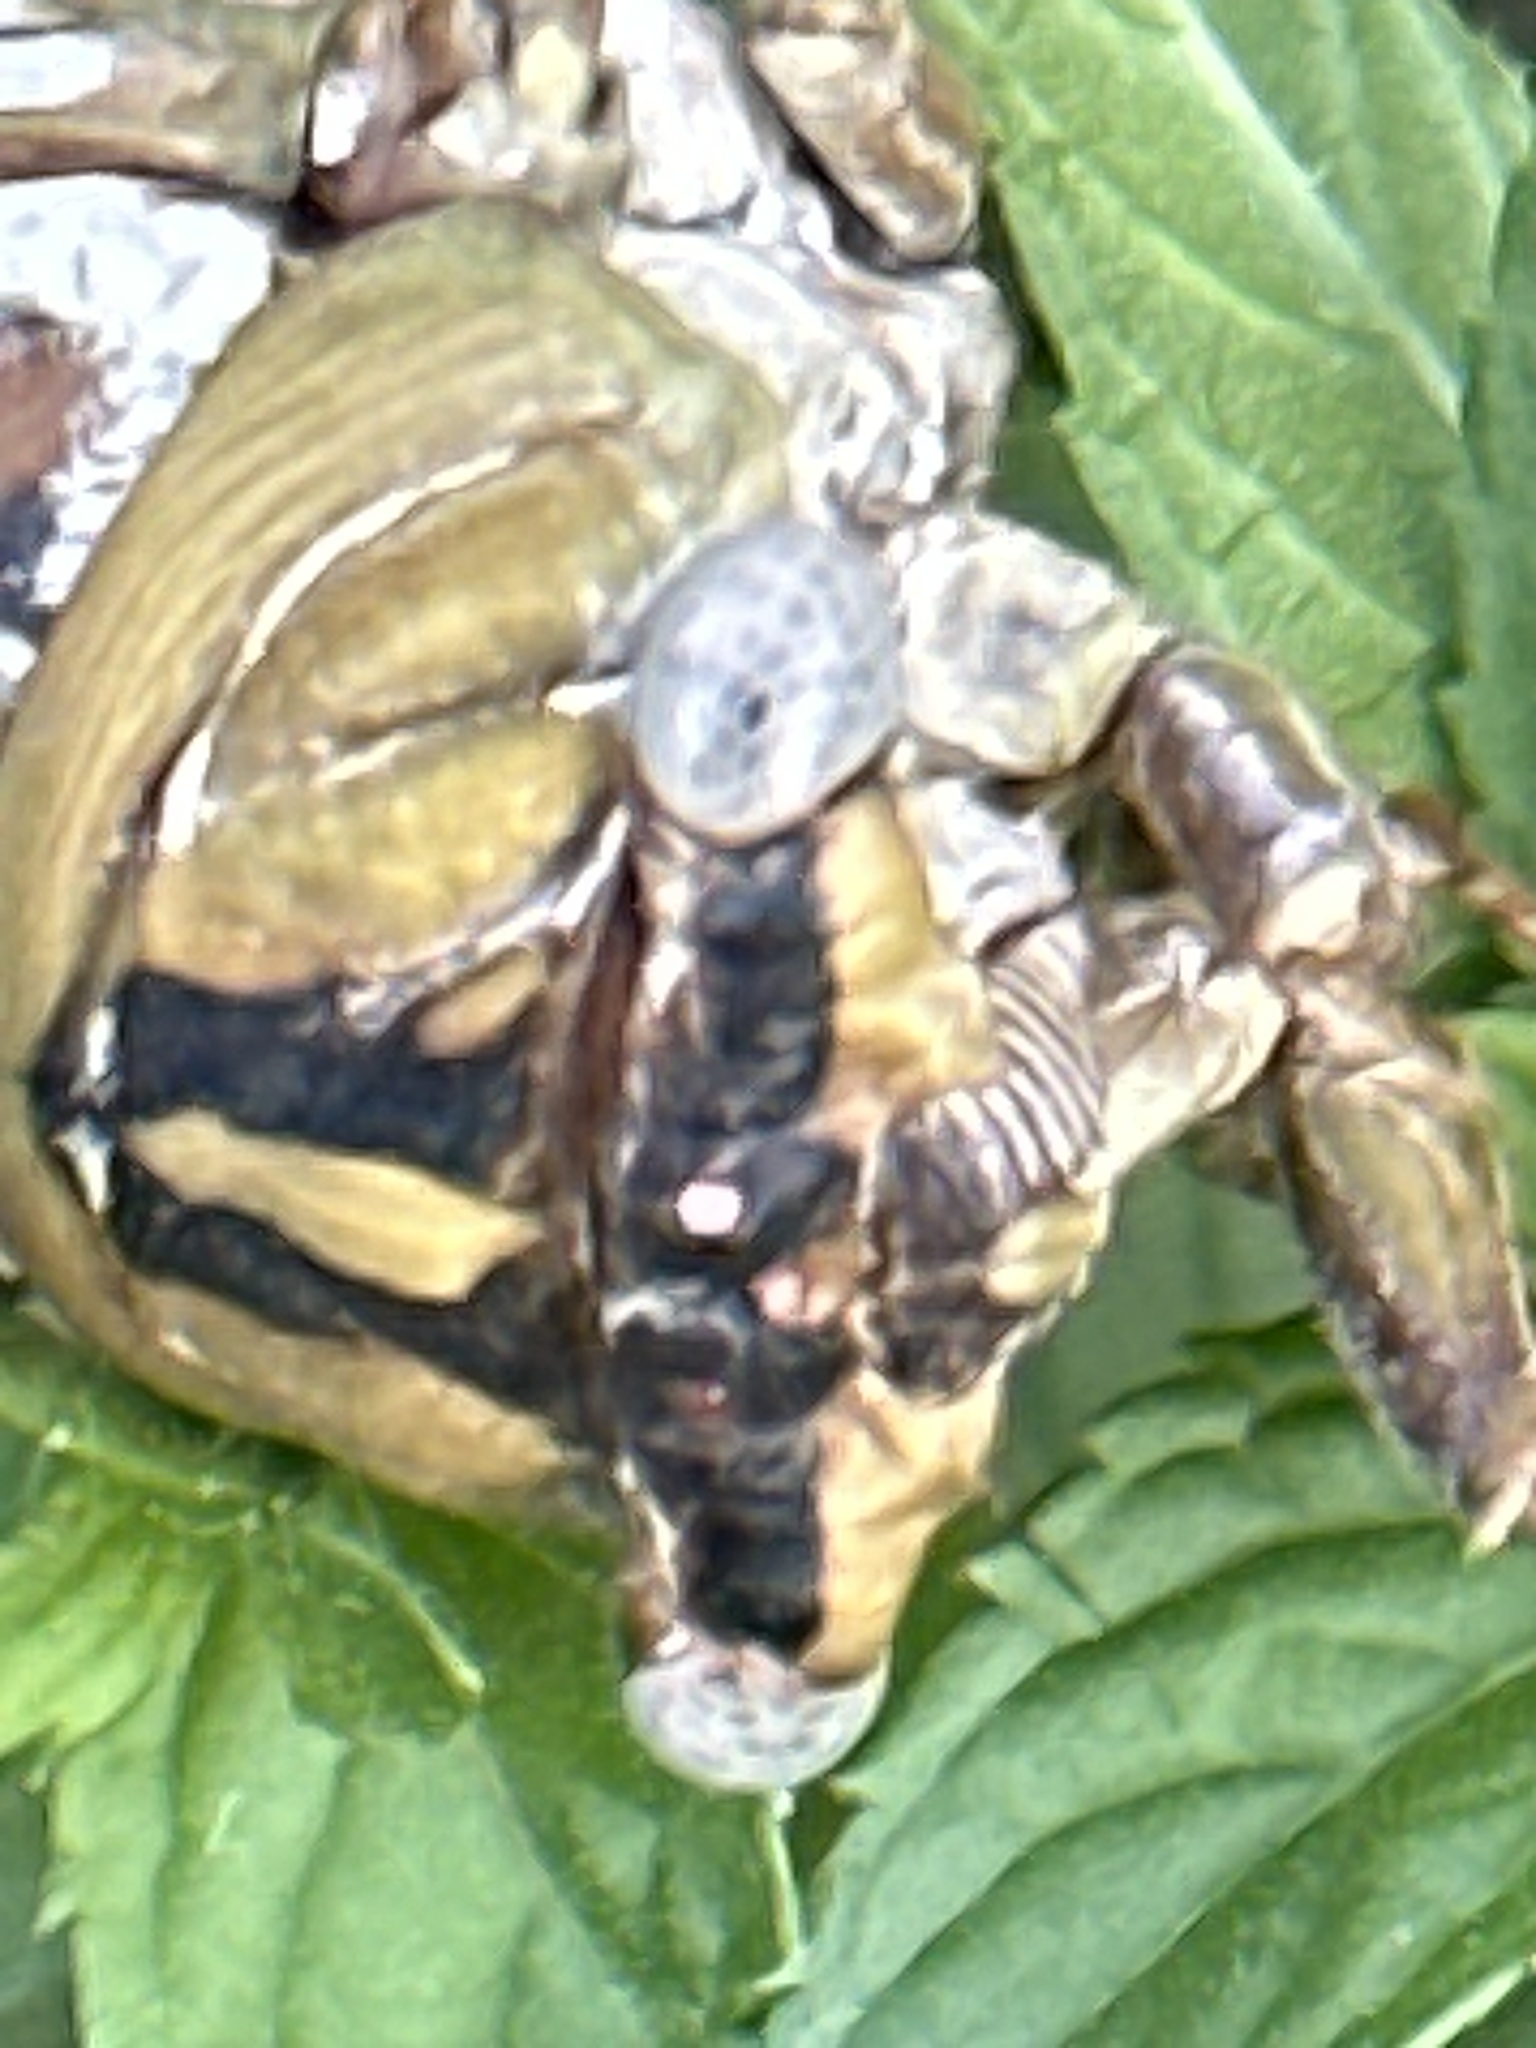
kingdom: Animalia
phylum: Arthropoda
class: Insecta
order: Hemiptera
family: Cicadidae
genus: Megatibicen
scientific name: Megatibicen dealbatus
